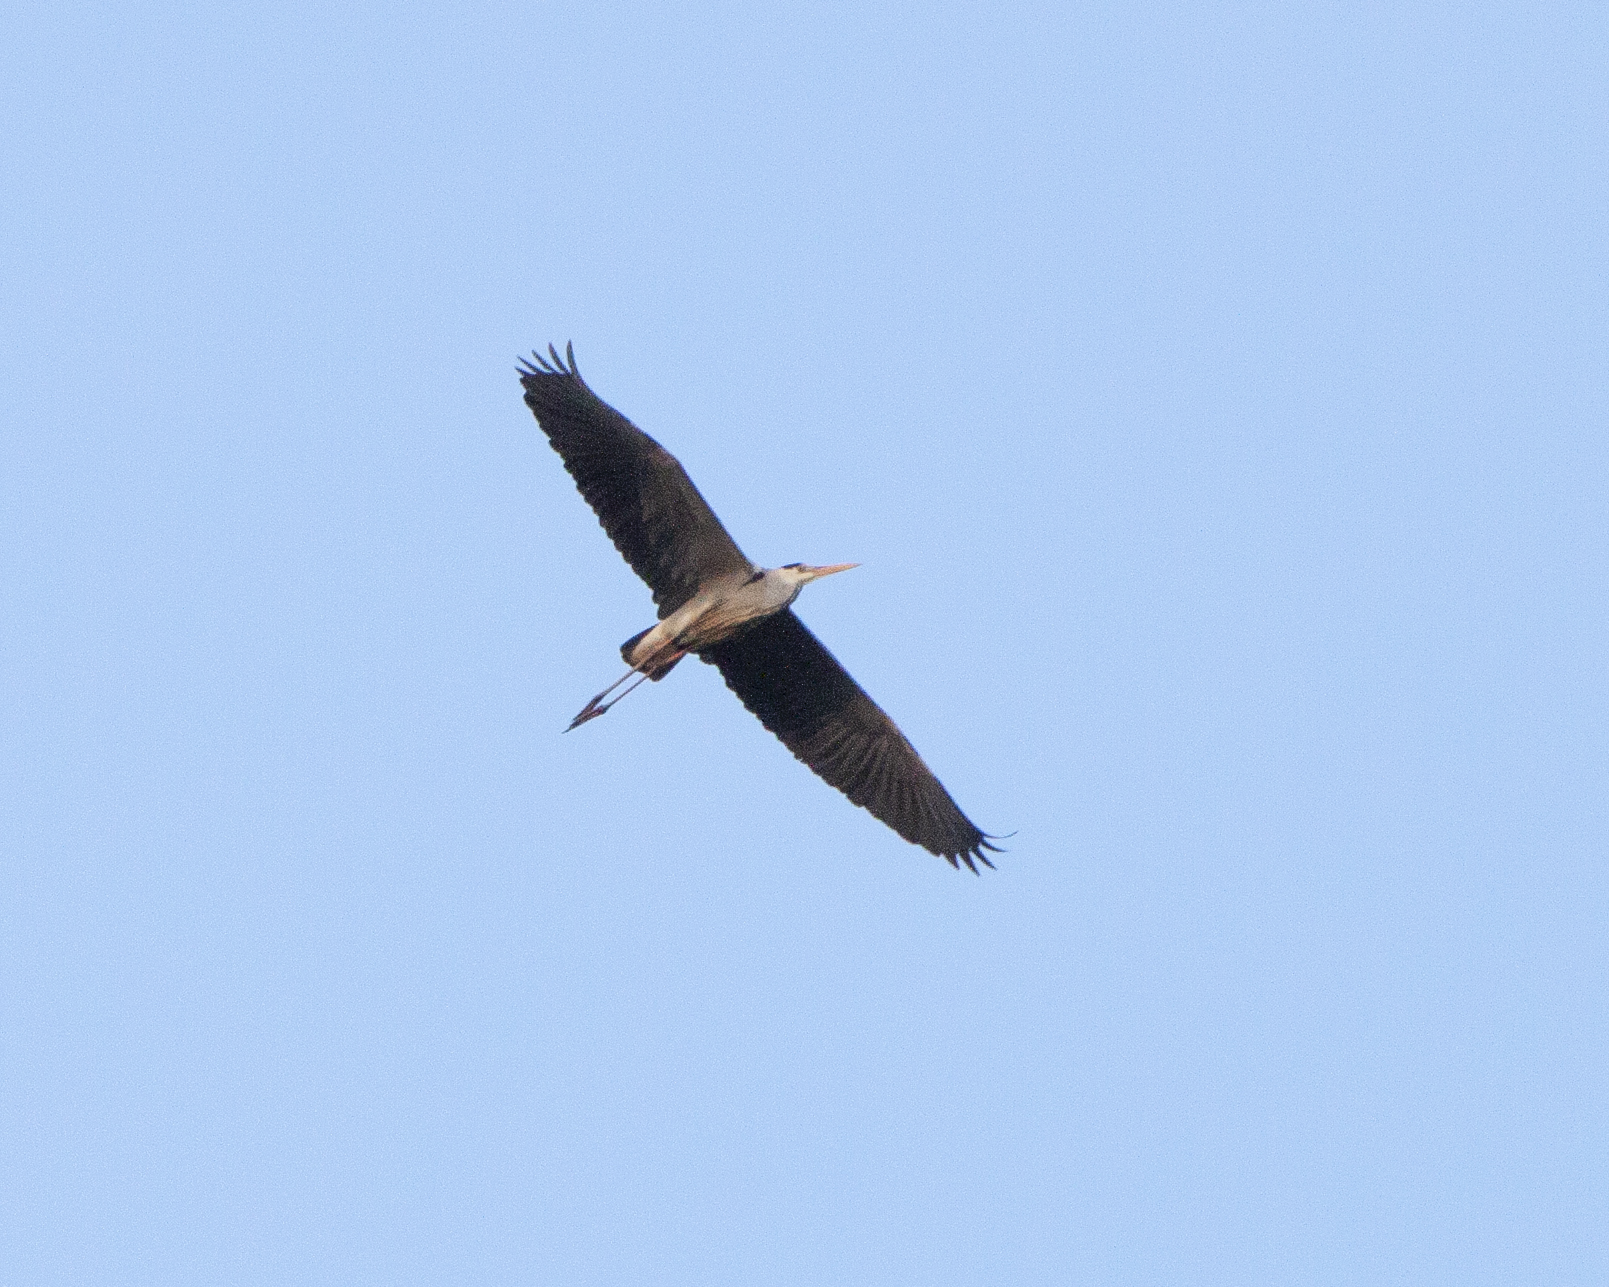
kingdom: Animalia
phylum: Chordata
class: Aves
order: Pelecaniformes
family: Ardeidae
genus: Ardea
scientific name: Ardea cinerea
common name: Grey heron
